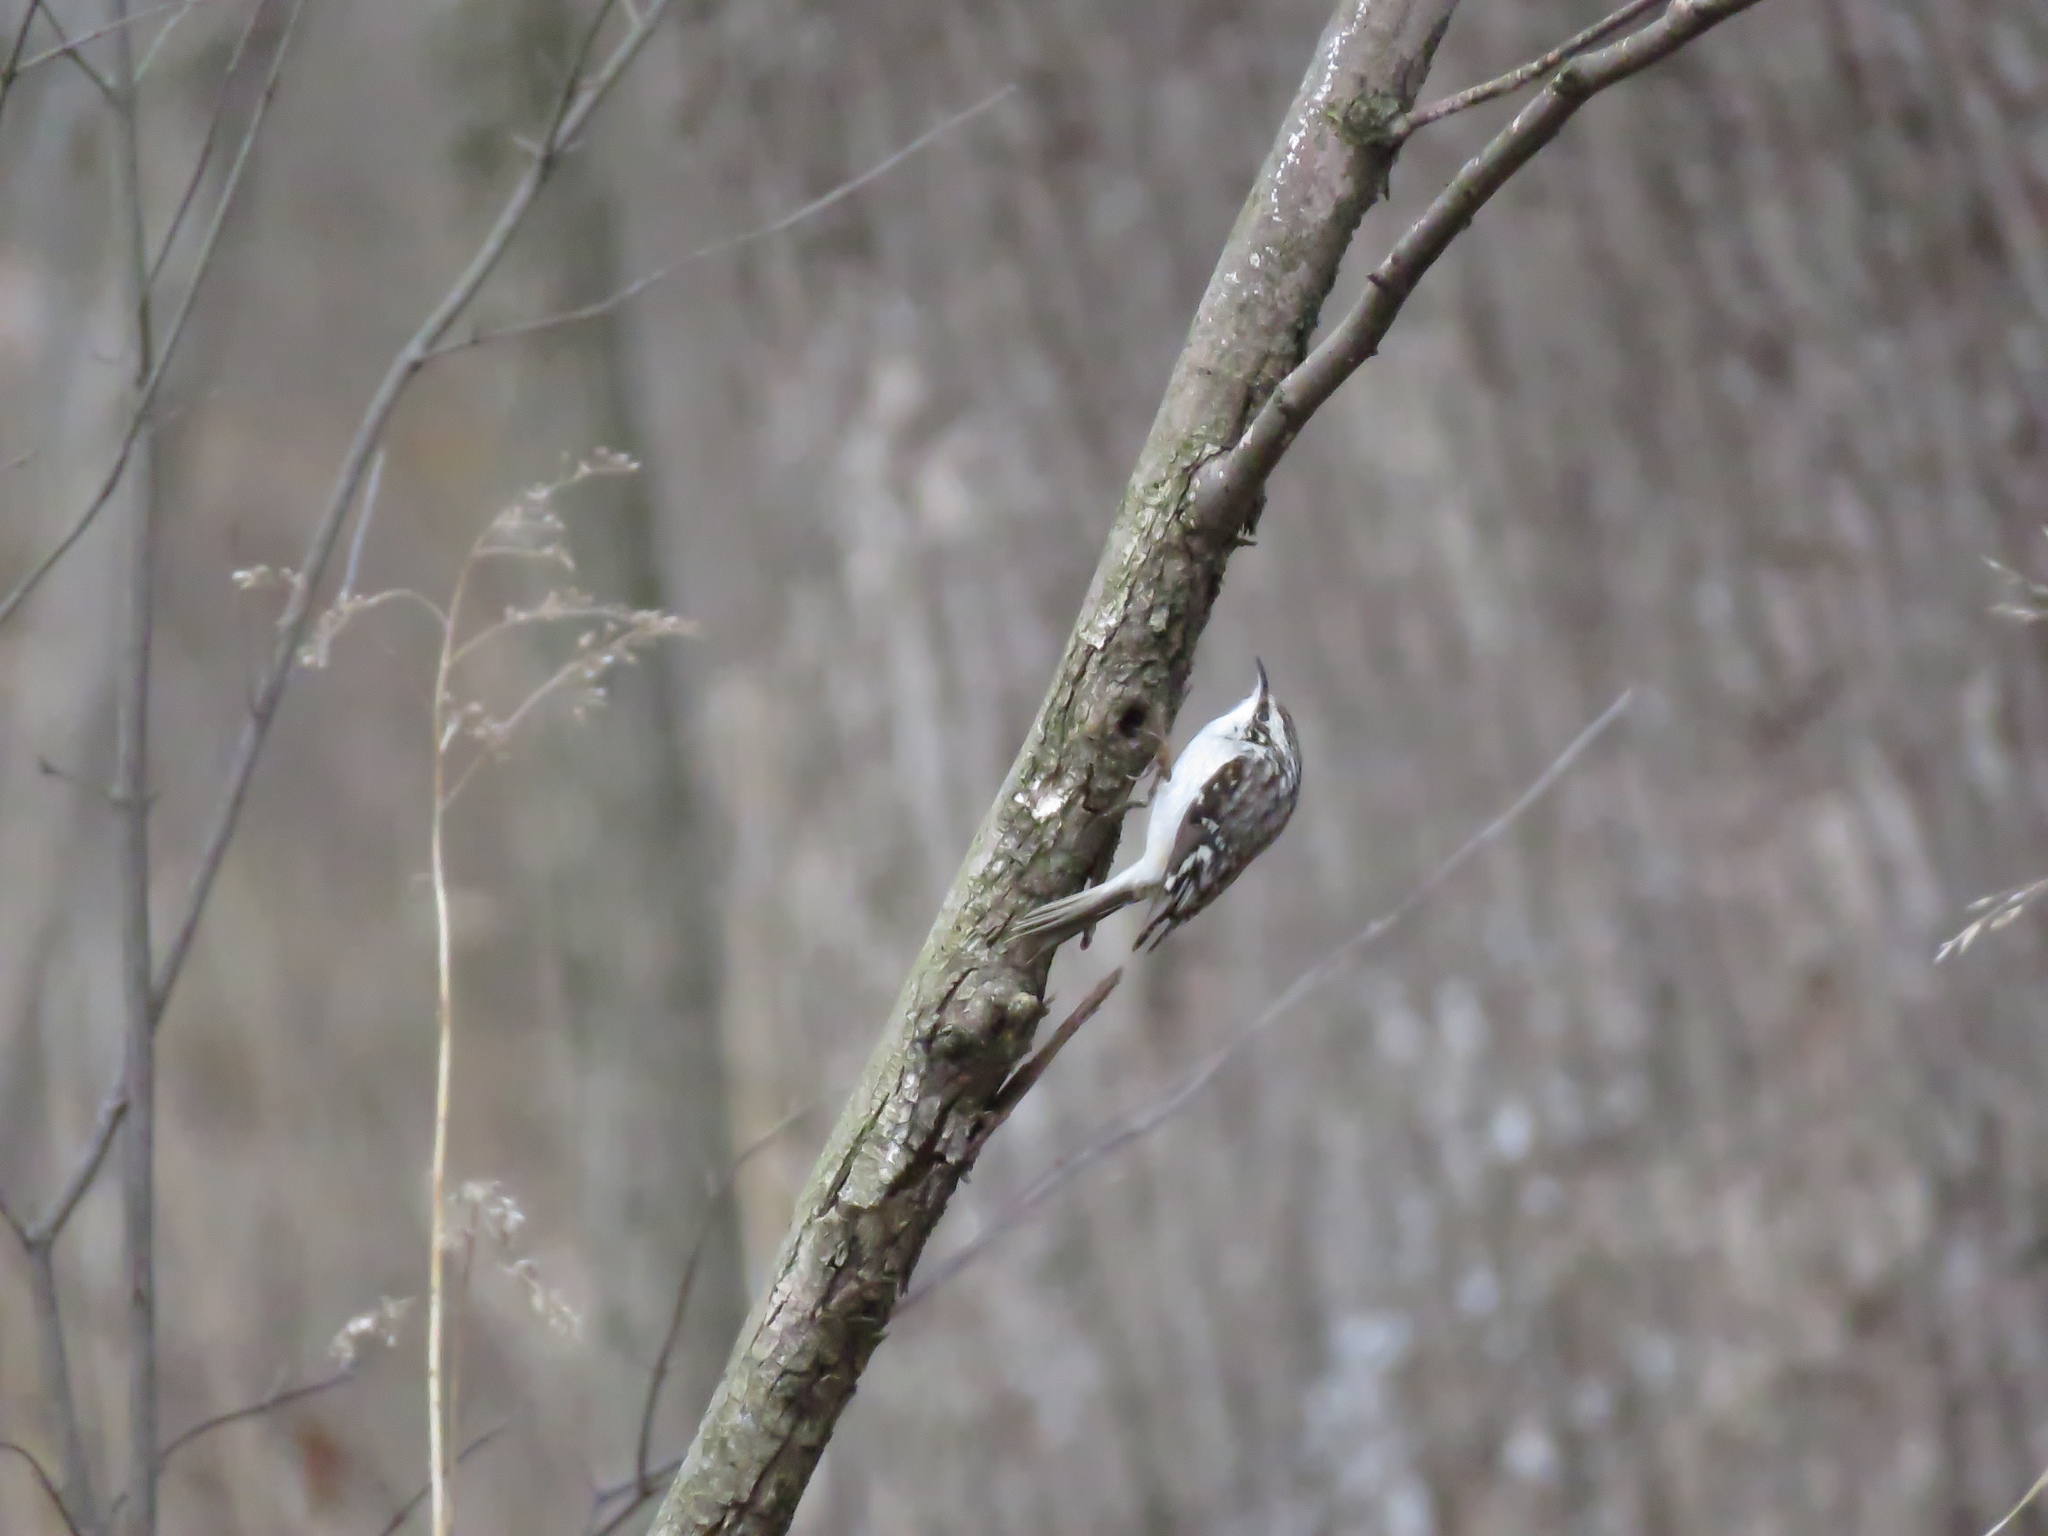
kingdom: Animalia
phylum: Chordata
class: Aves
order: Passeriformes
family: Certhiidae
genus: Certhia
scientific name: Certhia americana
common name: Brown creeper
